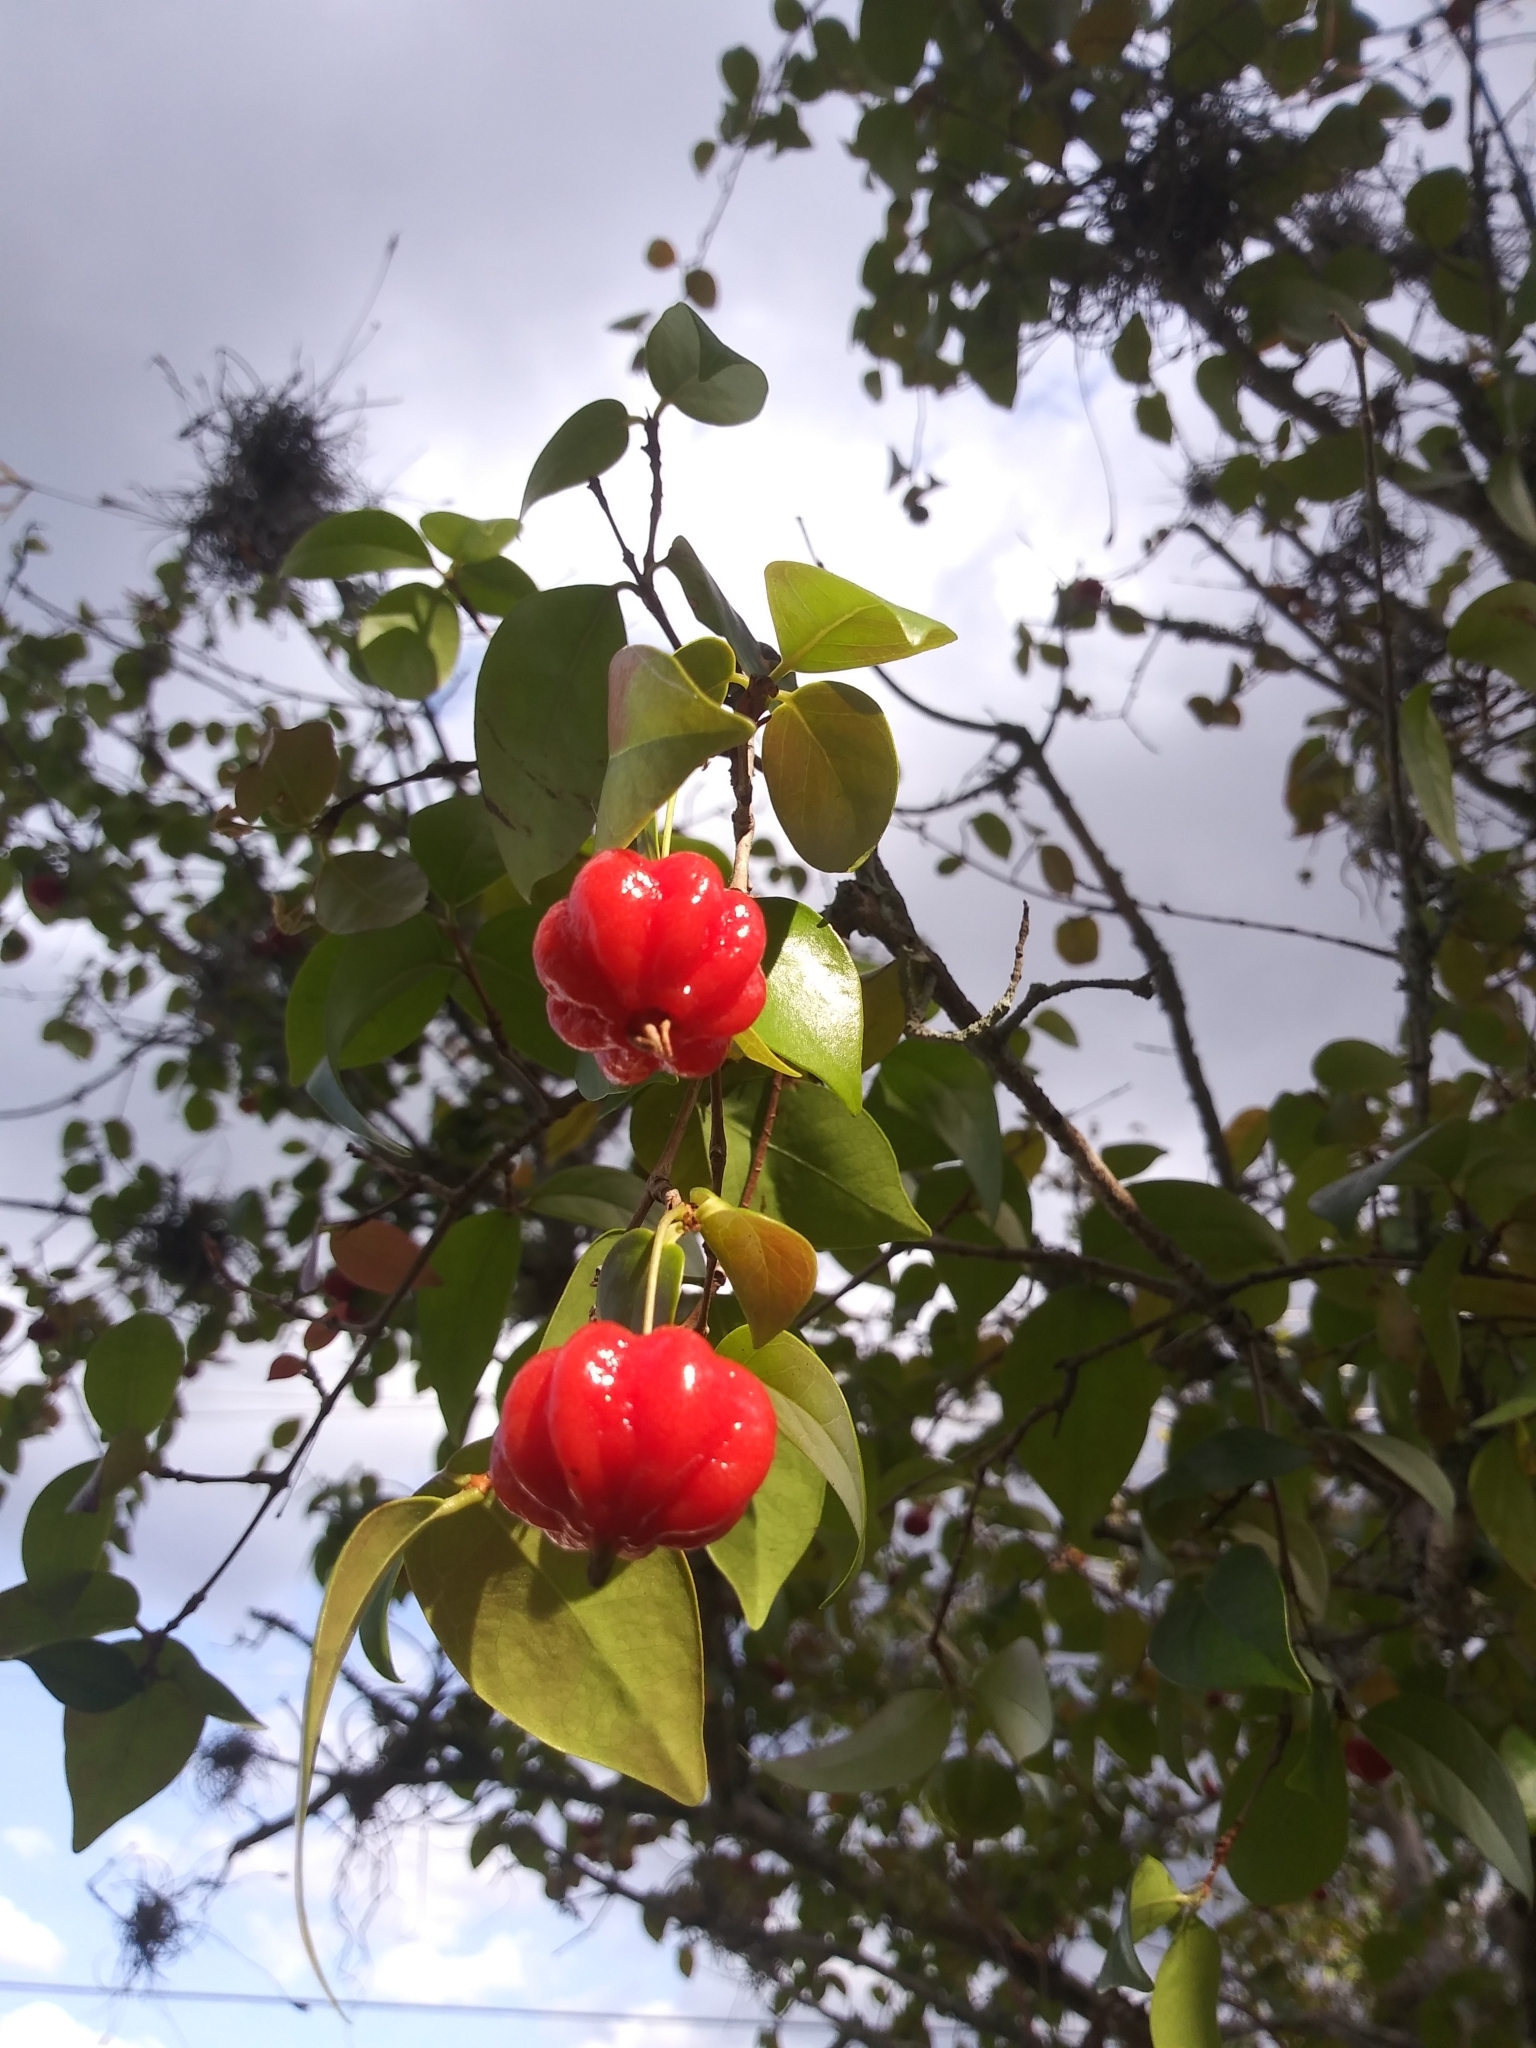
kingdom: Plantae
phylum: Tracheophyta
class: Magnoliopsida
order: Myrtales
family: Myrtaceae
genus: Eugenia
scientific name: Eugenia uniflora
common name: Surinam cherry
